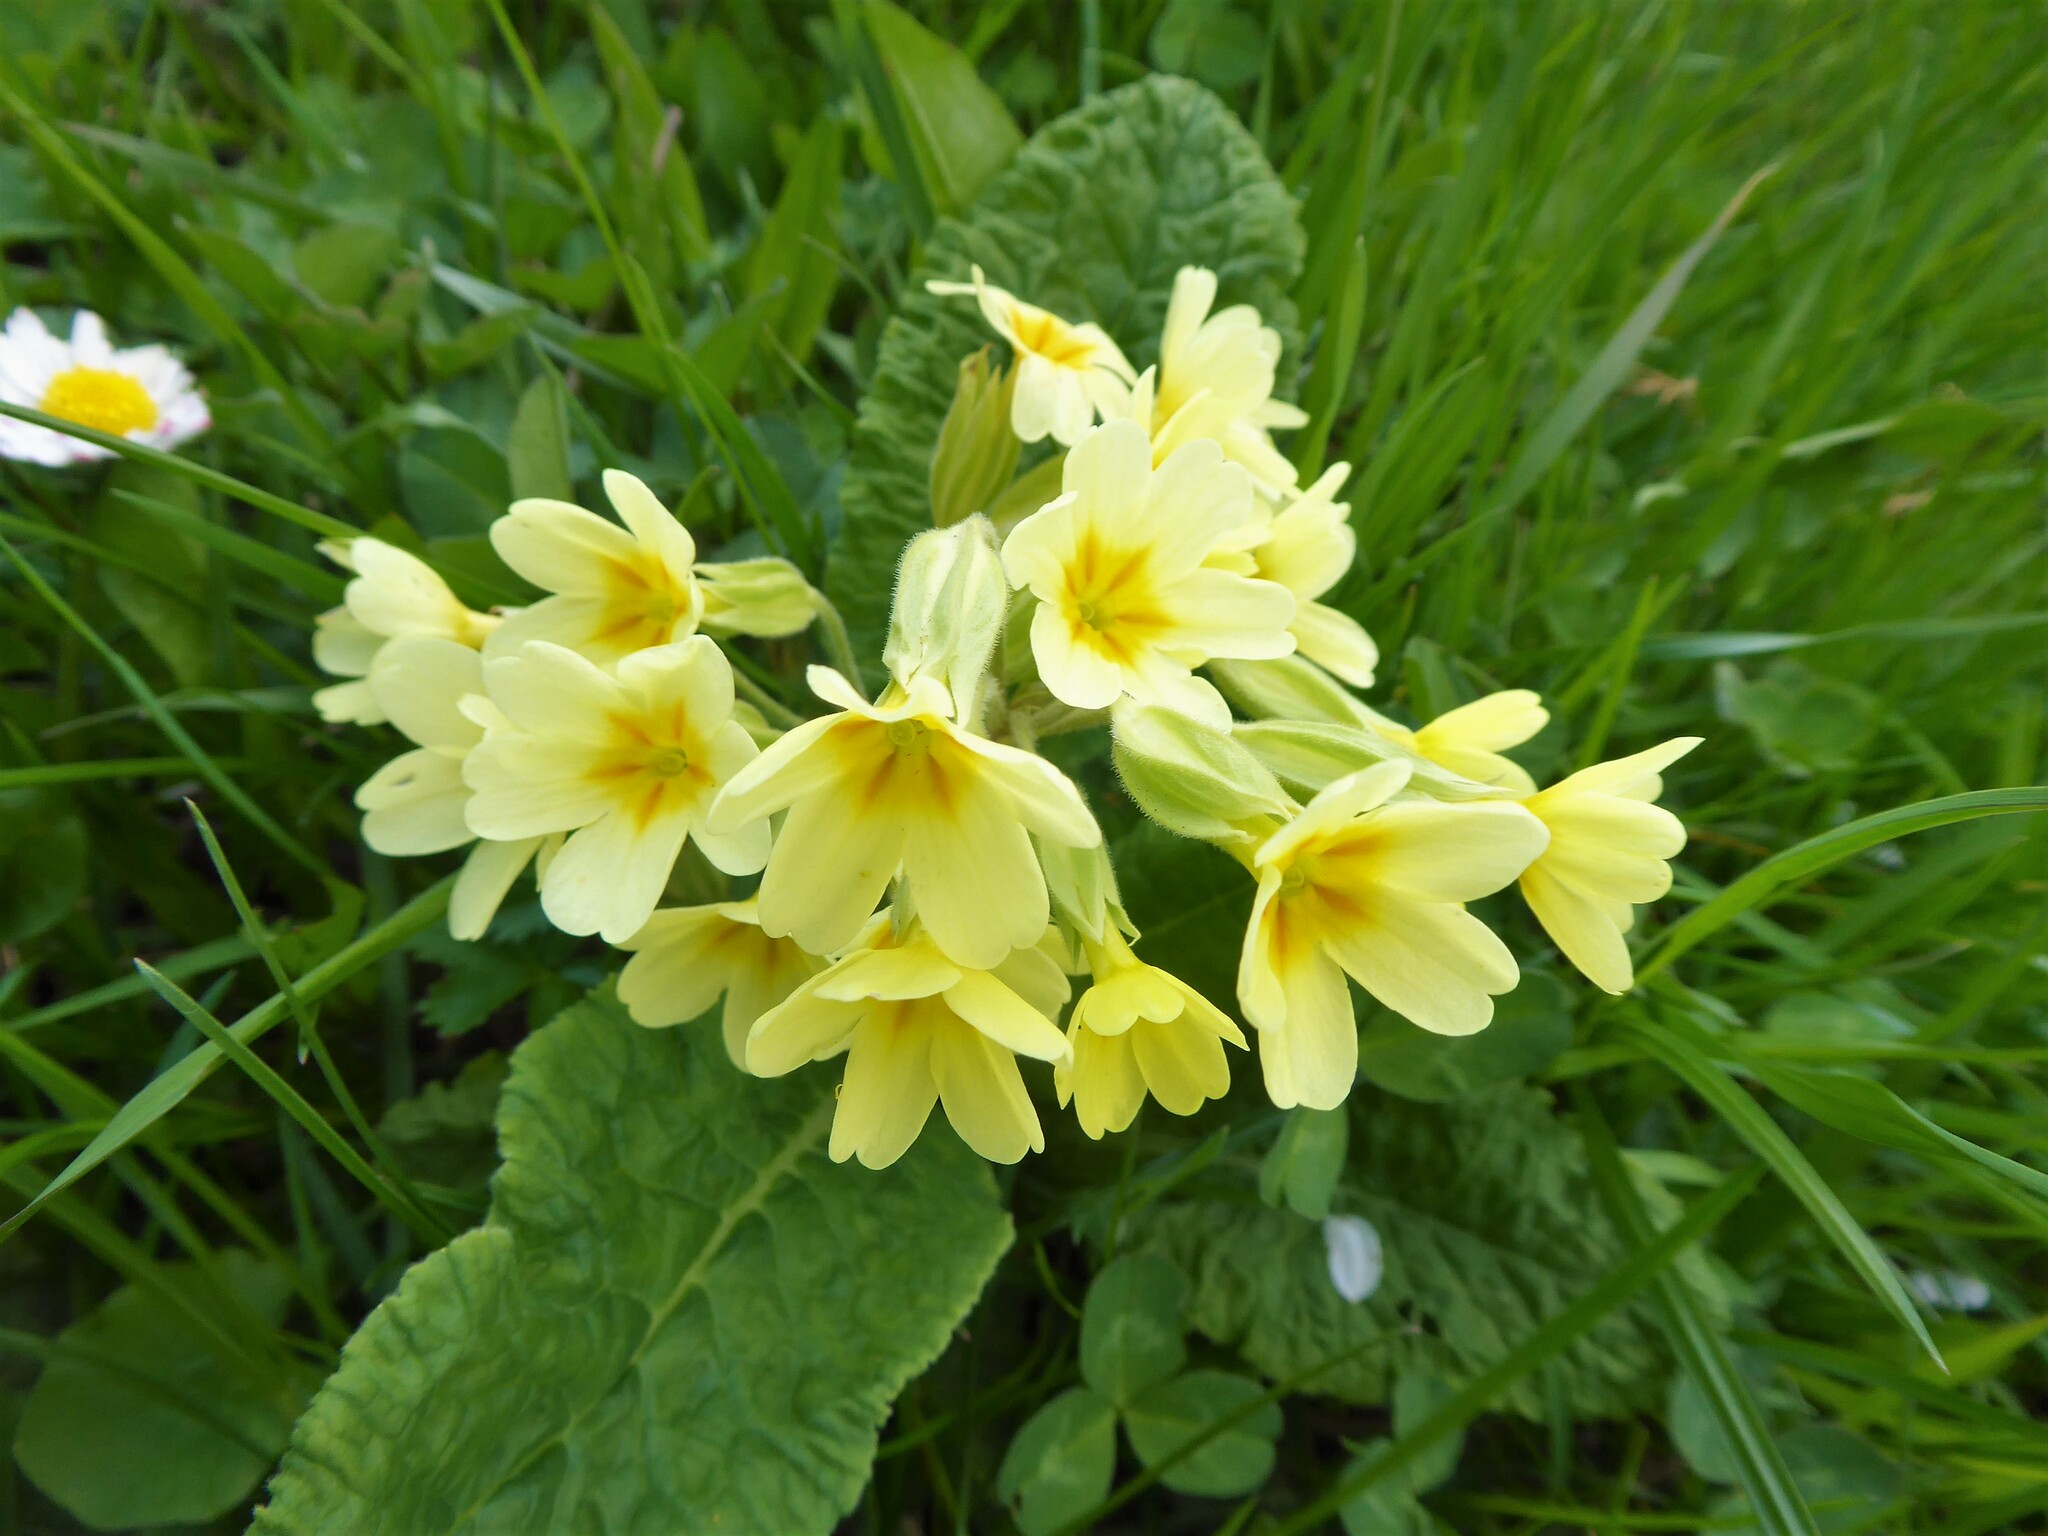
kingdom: Plantae
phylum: Tracheophyta
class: Magnoliopsida
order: Ericales
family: Primulaceae
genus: Primula
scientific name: Primula polyantha
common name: False oxlip
